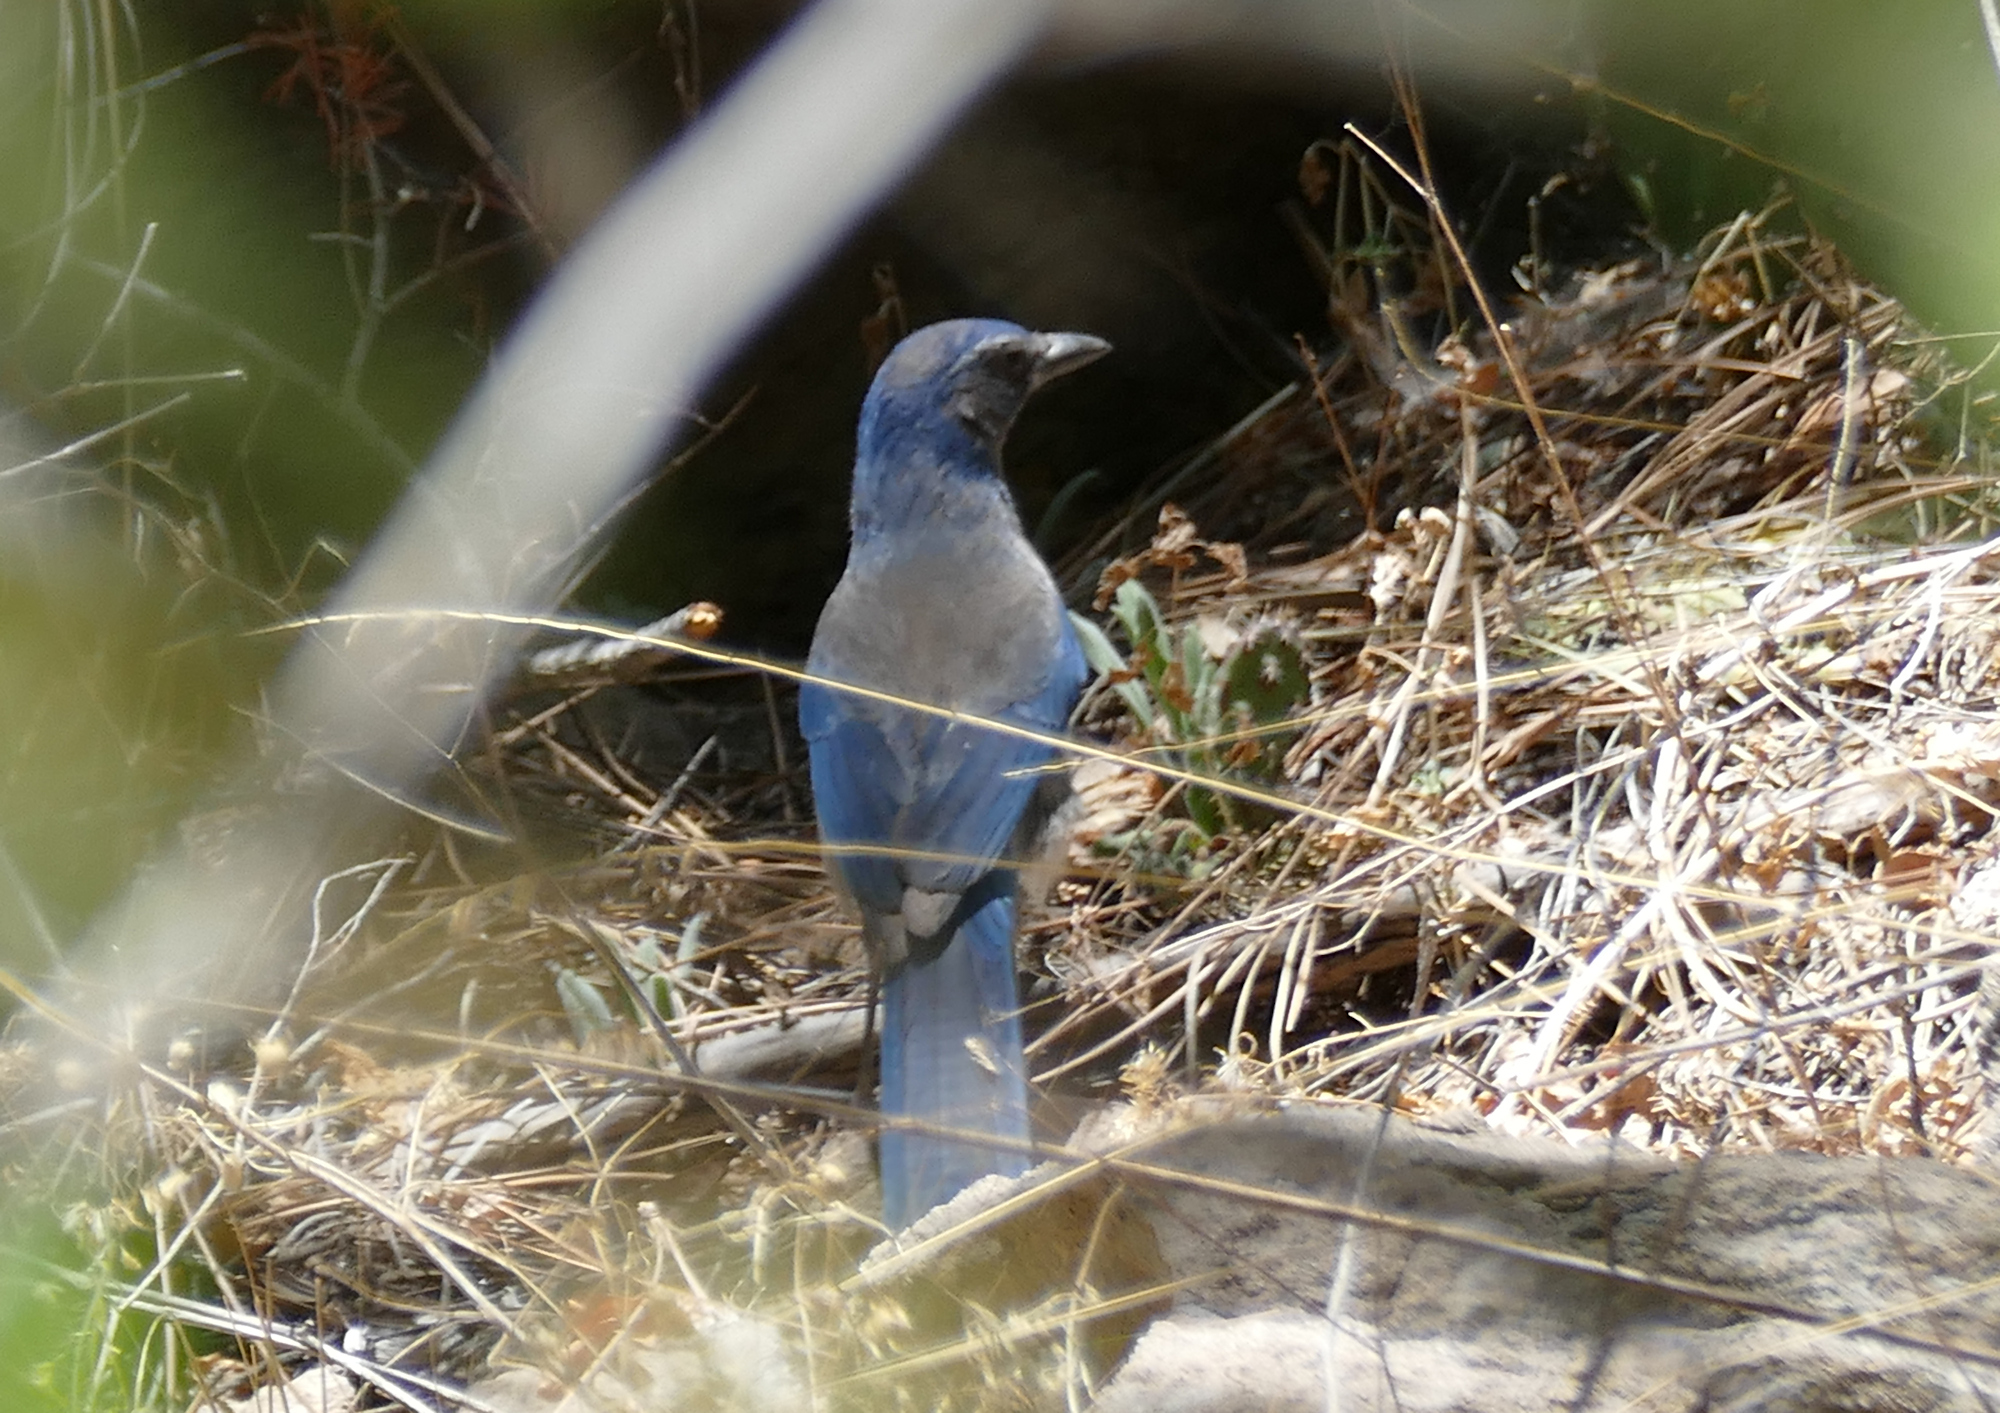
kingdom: Animalia
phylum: Chordata
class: Aves
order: Passeriformes
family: Corvidae
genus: Aphelocoma
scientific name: Aphelocoma woodhouseii
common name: Woodhouse's scrub-jay
